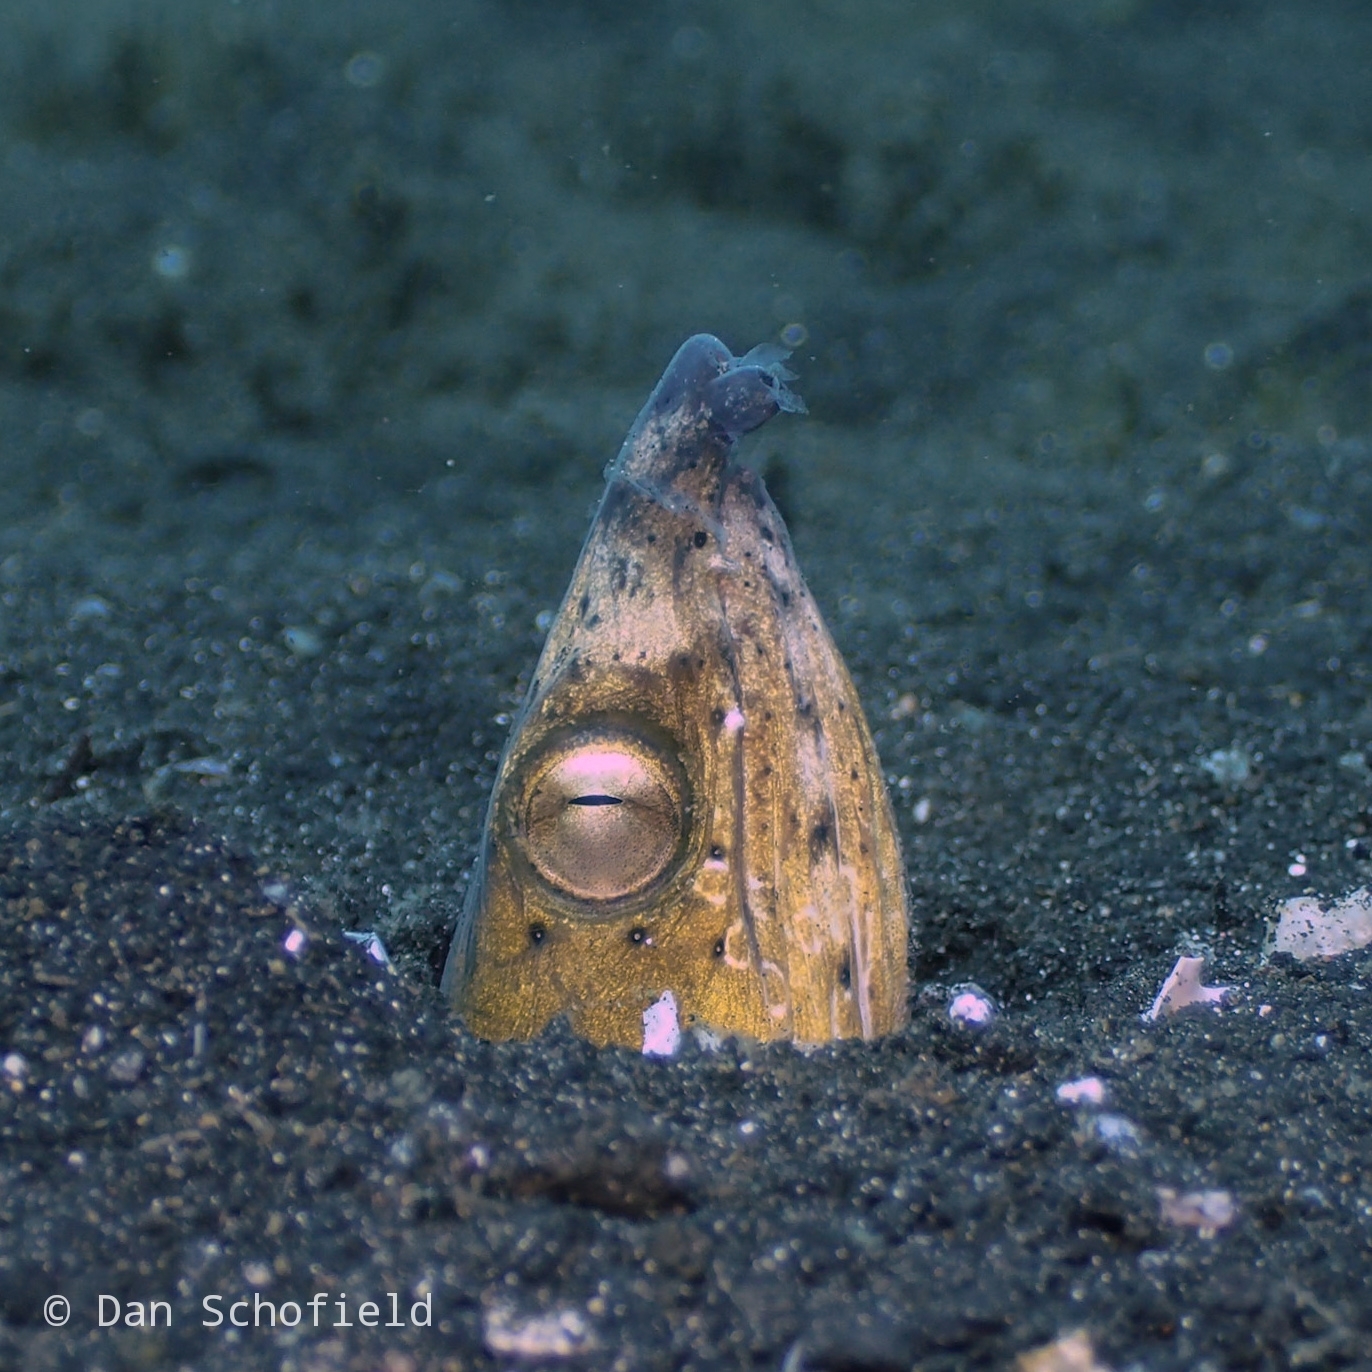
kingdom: Animalia
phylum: Chordata
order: Anguilliformes
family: Ophichthidae
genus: Ophichthus
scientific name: Ophichthus altipennis
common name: Highfin snake eel
